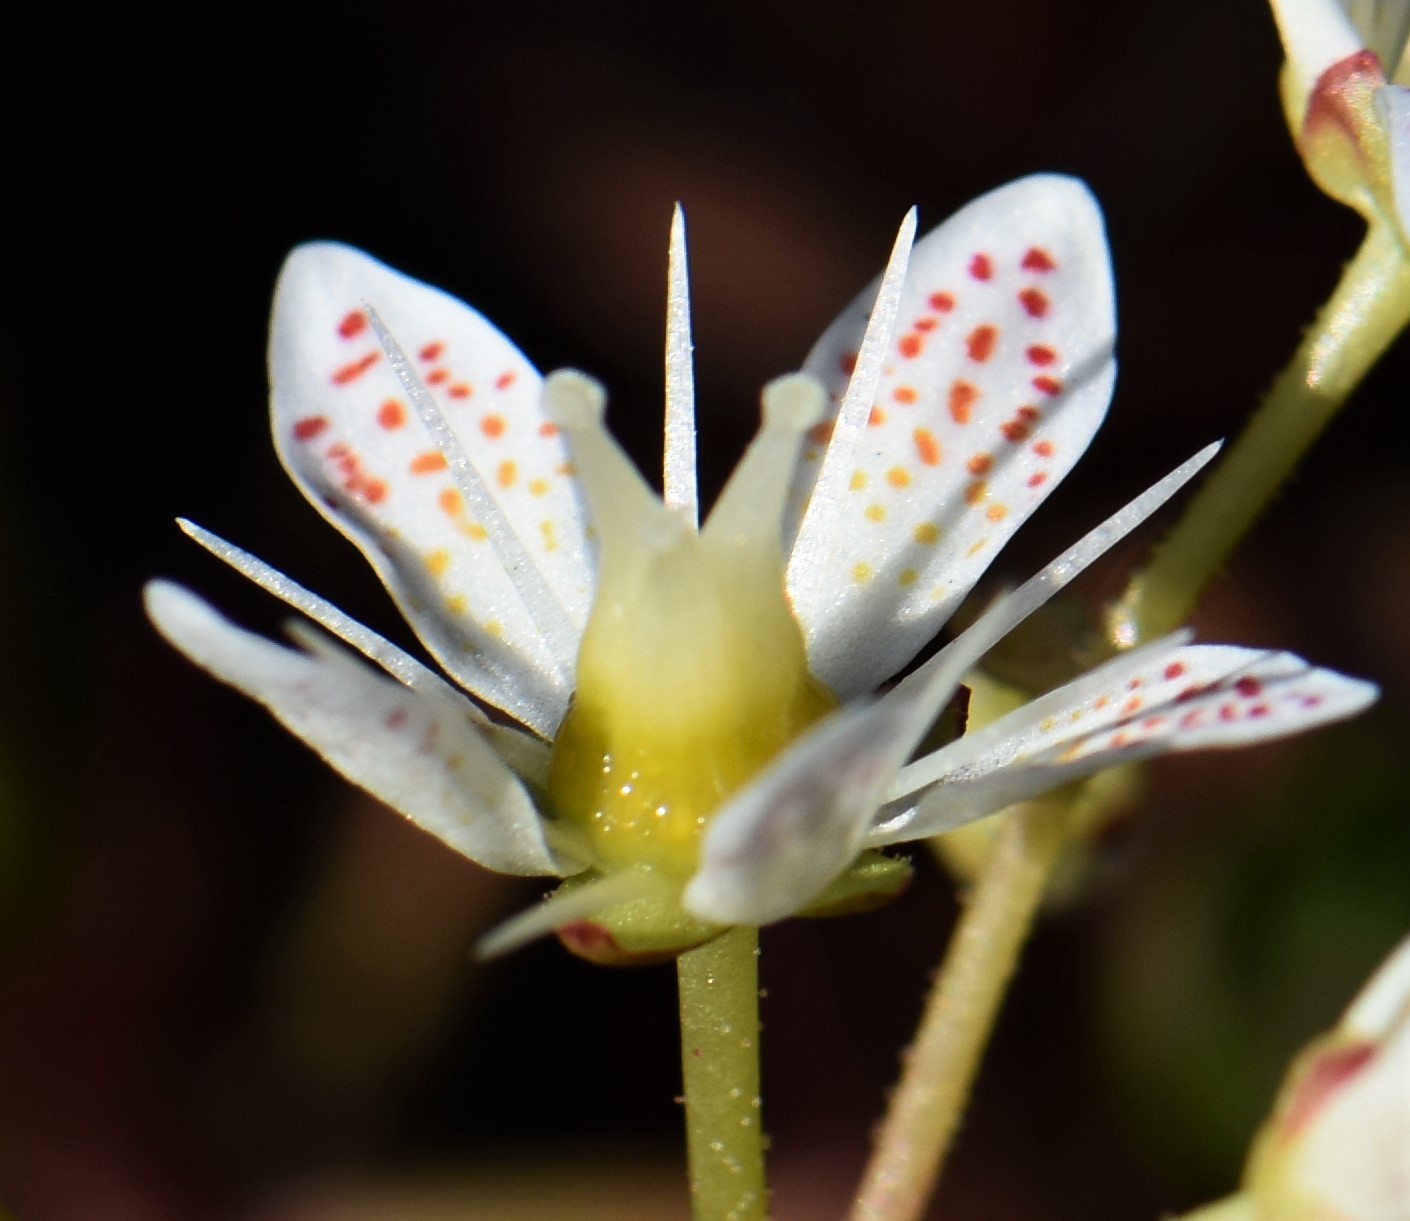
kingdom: Plantae
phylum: Tracheophyta
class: Magnoliopsida
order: Saxifragales
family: Saxifragaceae
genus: Saxifraga
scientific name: Saxifraga tricuspidata
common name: Prickly saxifrage
